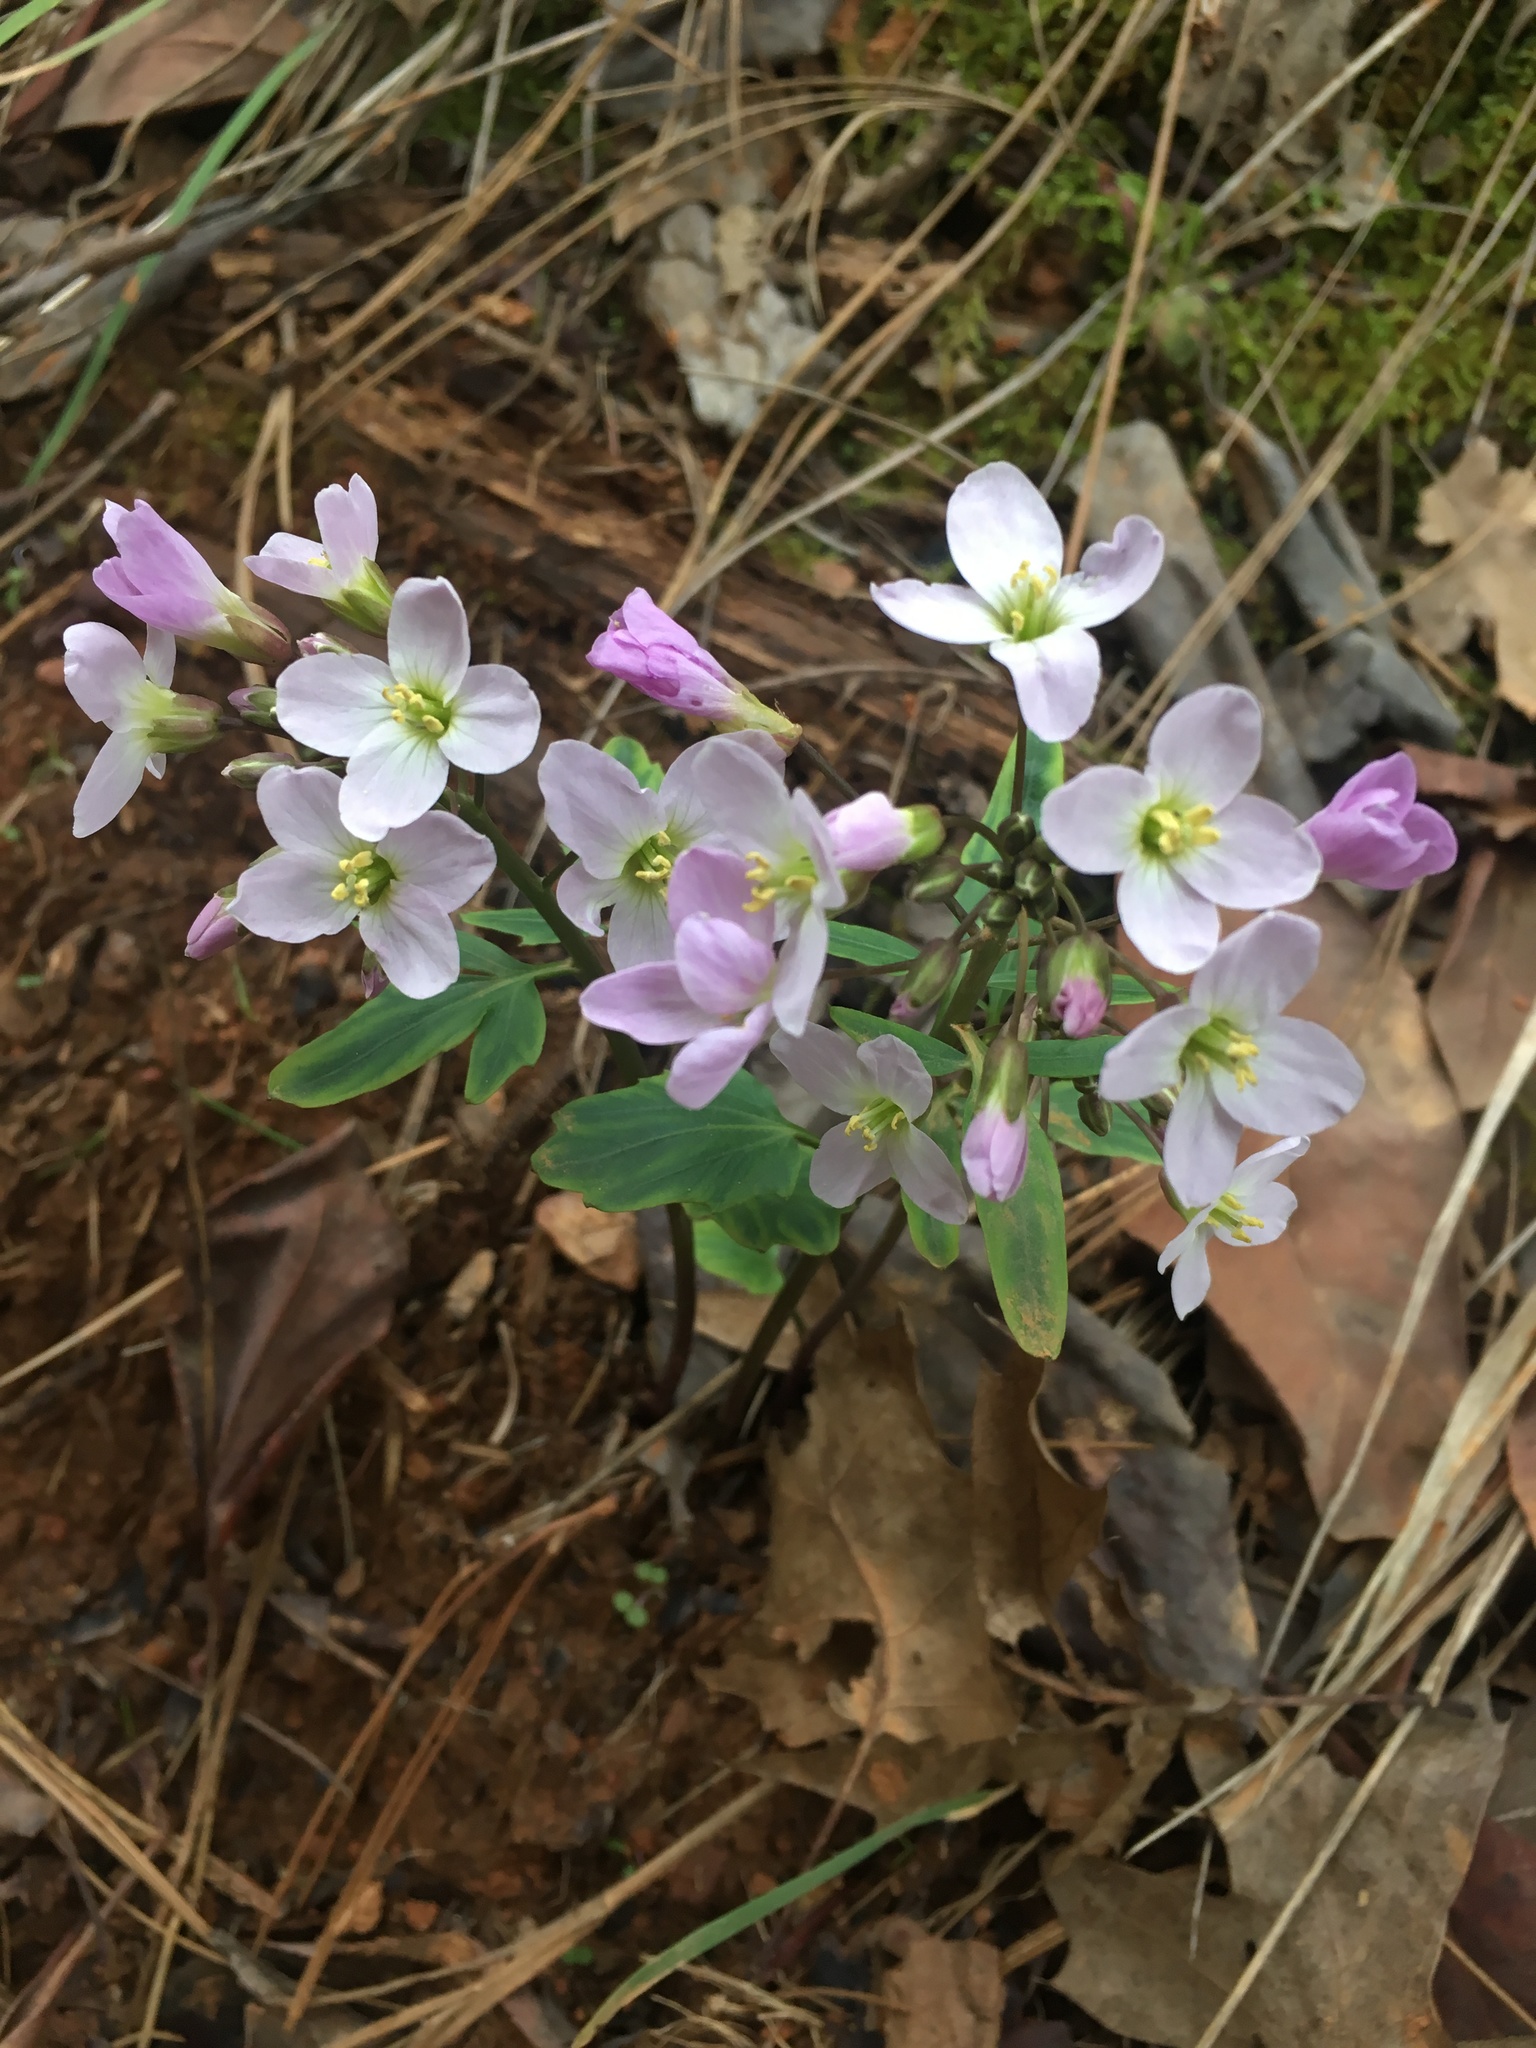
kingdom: Plantae
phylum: Tracheophyta
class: Magnoliopsida
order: Brassicales
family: Brassicaceae
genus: Cardamine
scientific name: Cardamine californica
